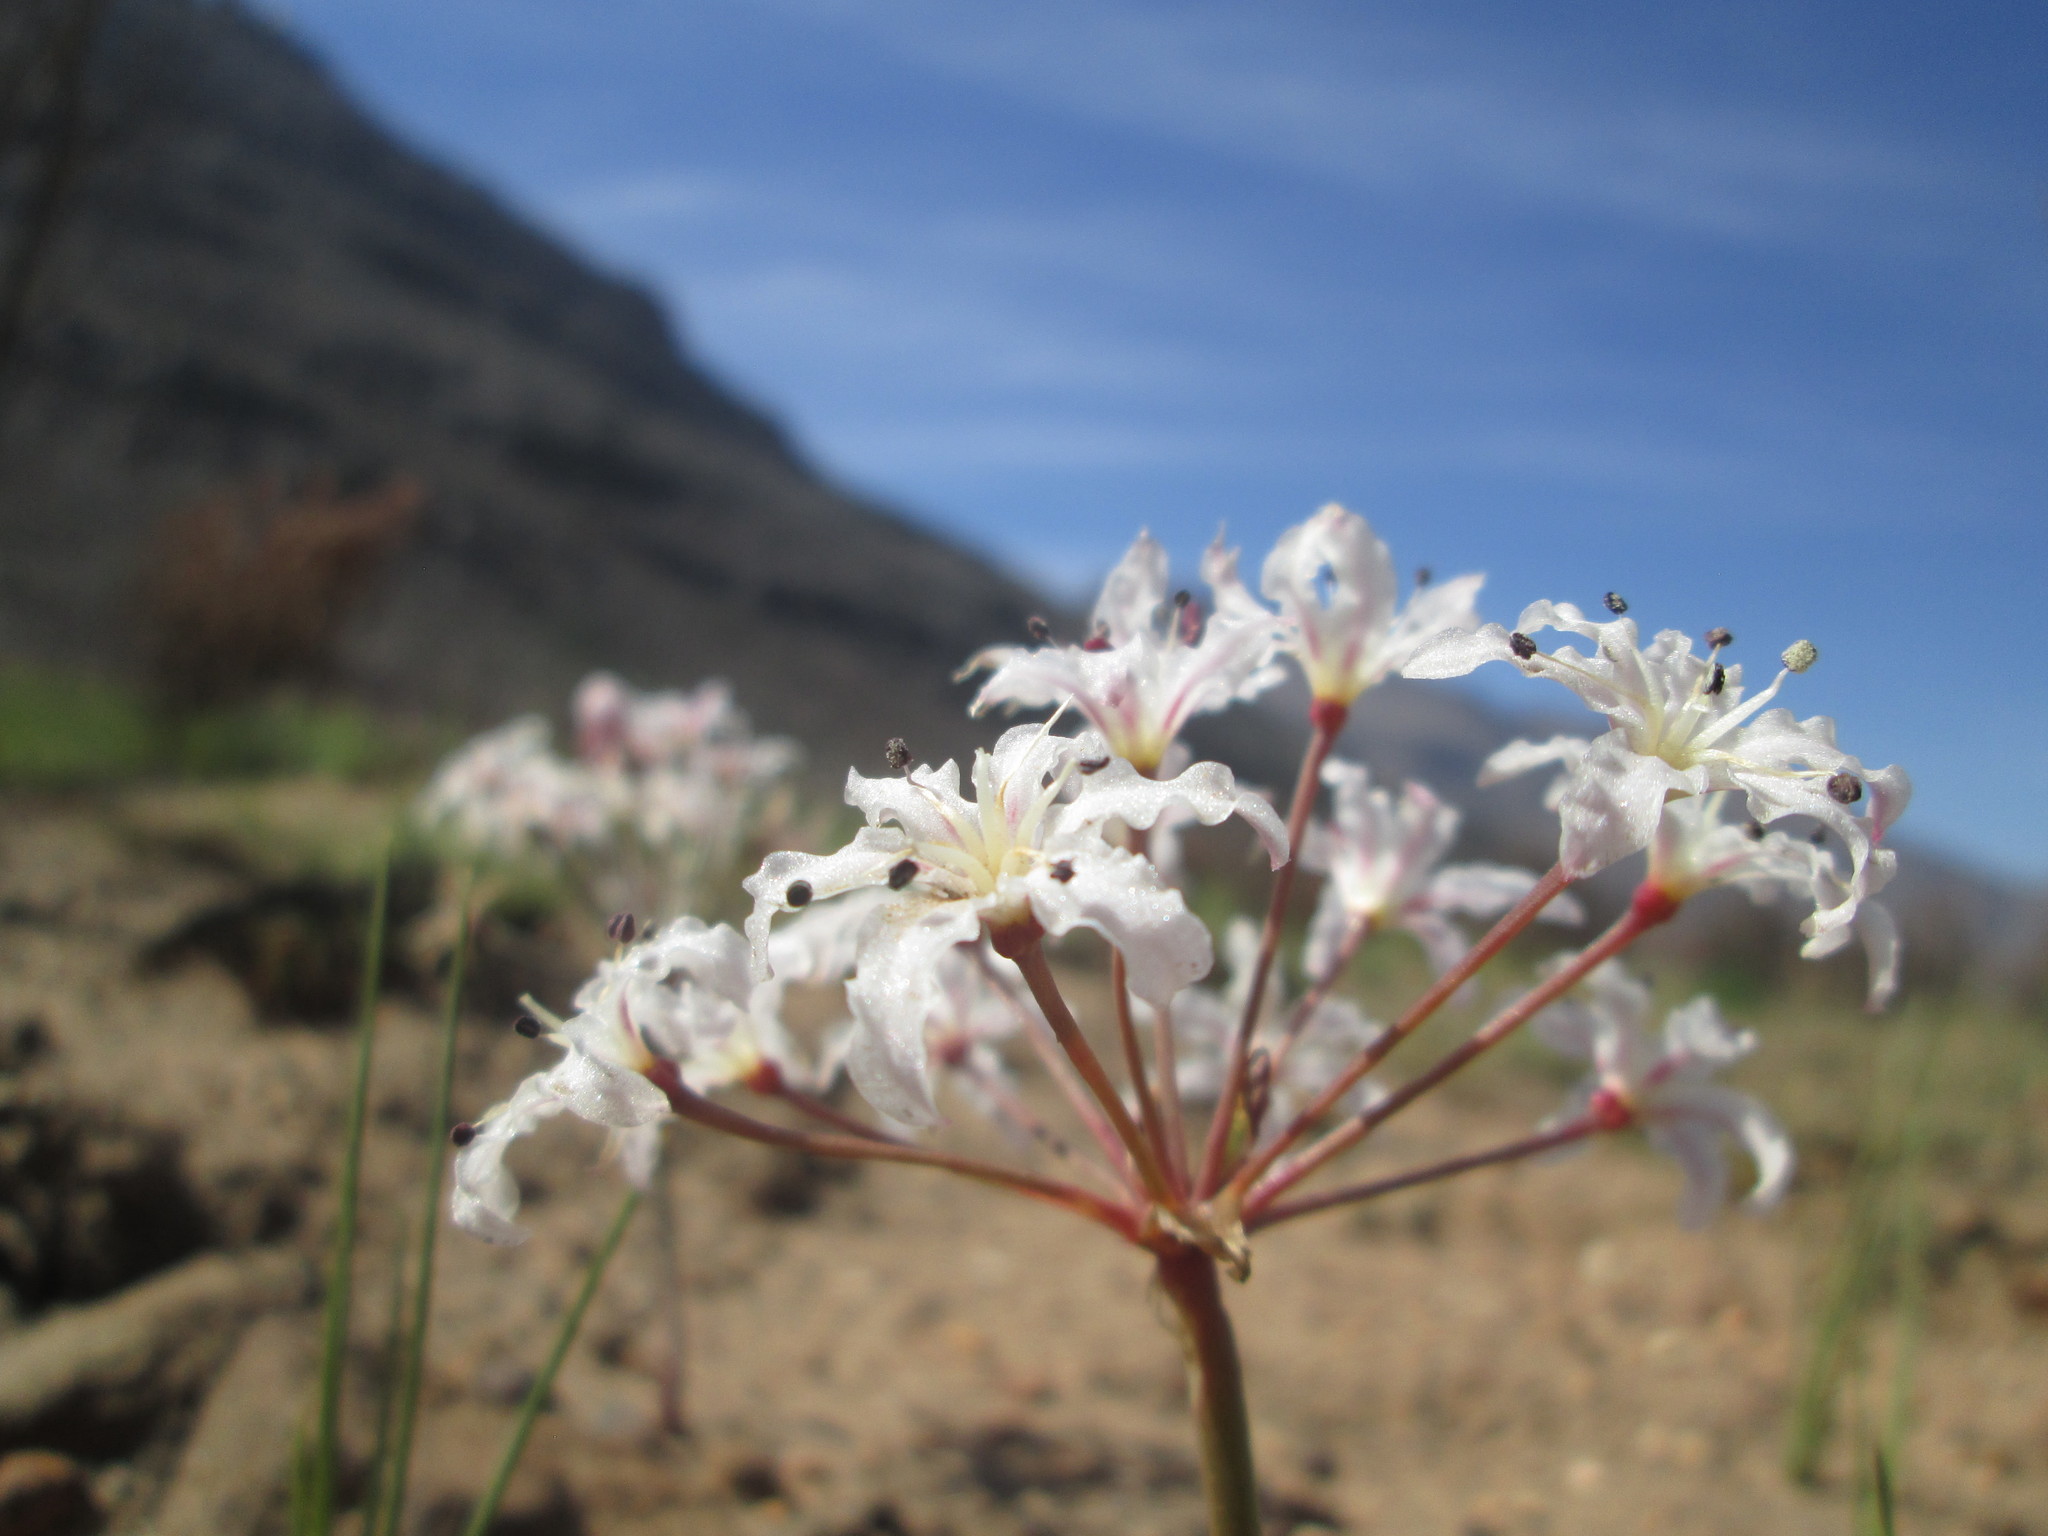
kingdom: Plantae
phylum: Tracheophyta
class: Liliopsida
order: Asparagales
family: Amaryllidaceae
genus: Hessea
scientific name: Hessea monticola
